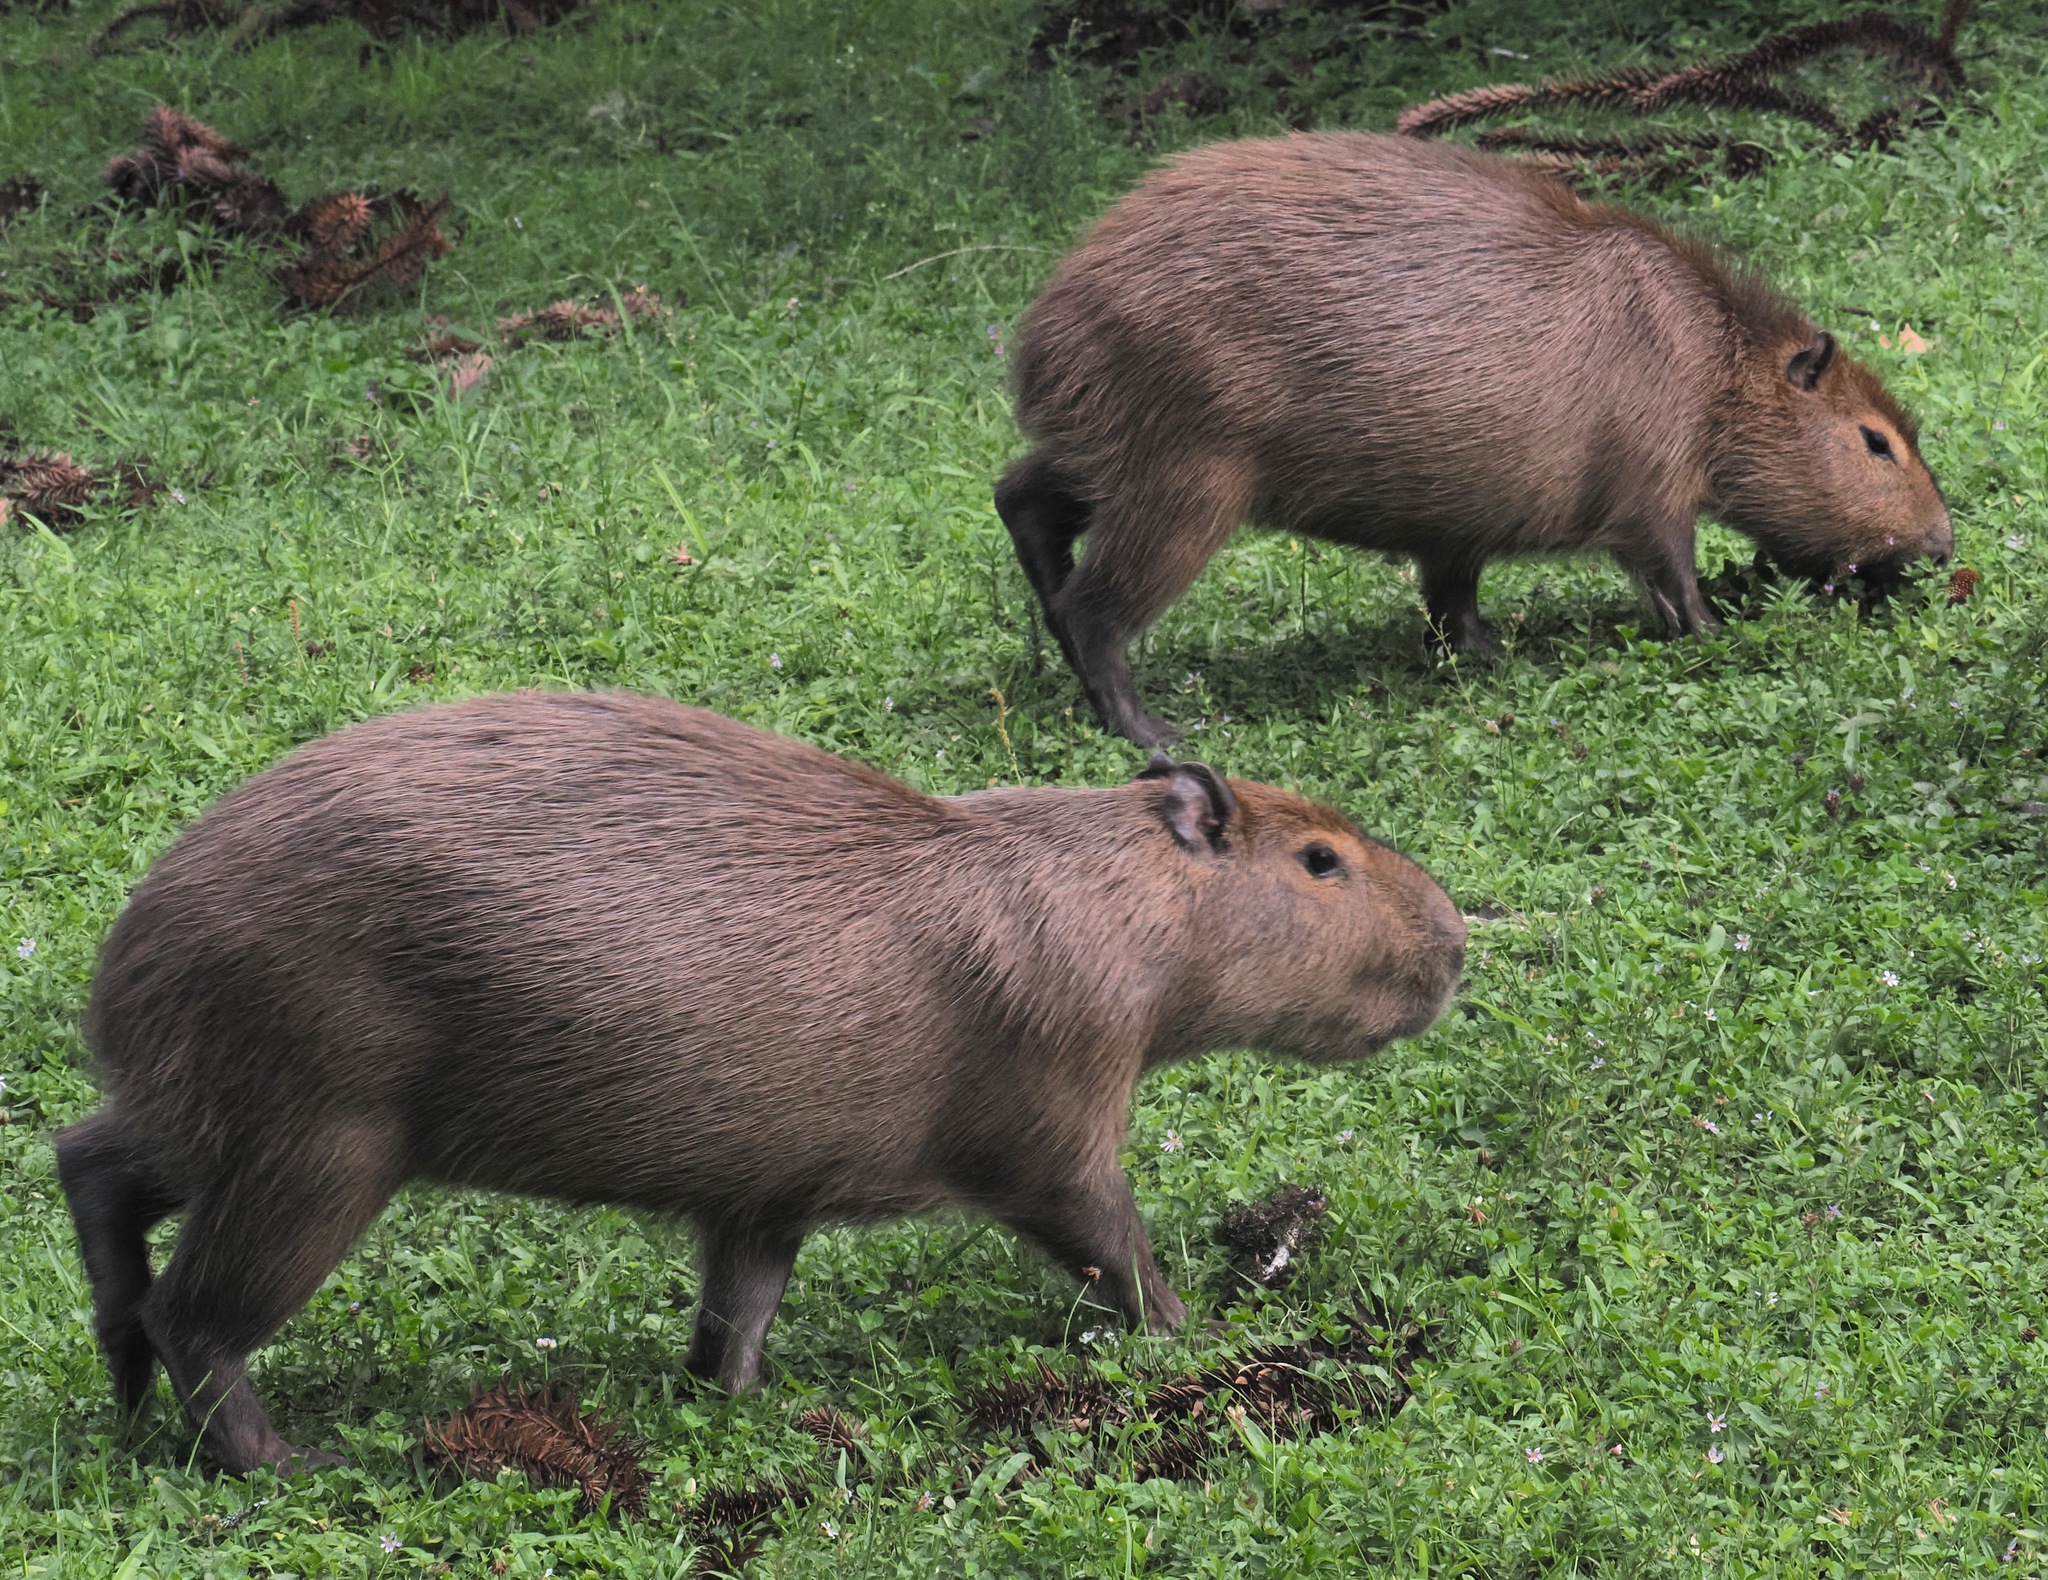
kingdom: Animalia
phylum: Chordata
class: Mammalia
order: Rodentia
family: Caviidae
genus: Hydrochoerus
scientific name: Hydrochoerus hydrochaeris
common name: Capybara
